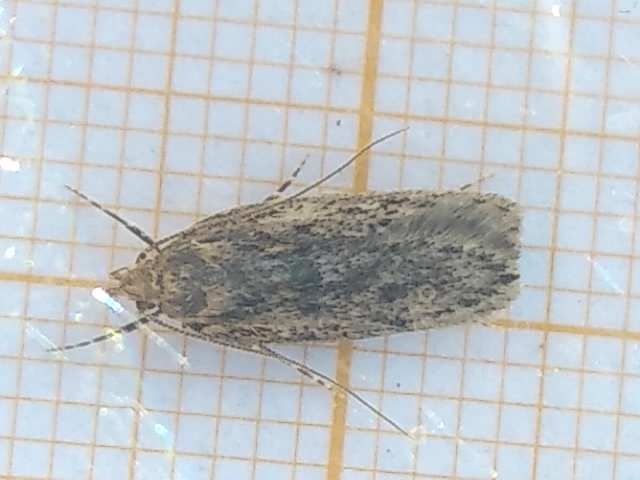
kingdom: Animalia
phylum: Arthropoda
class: Insecta
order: Lepidoptera
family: Oecophoridae
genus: Hofmannophila
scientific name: Hofmannophila pseudospretella
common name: Brown house moth
